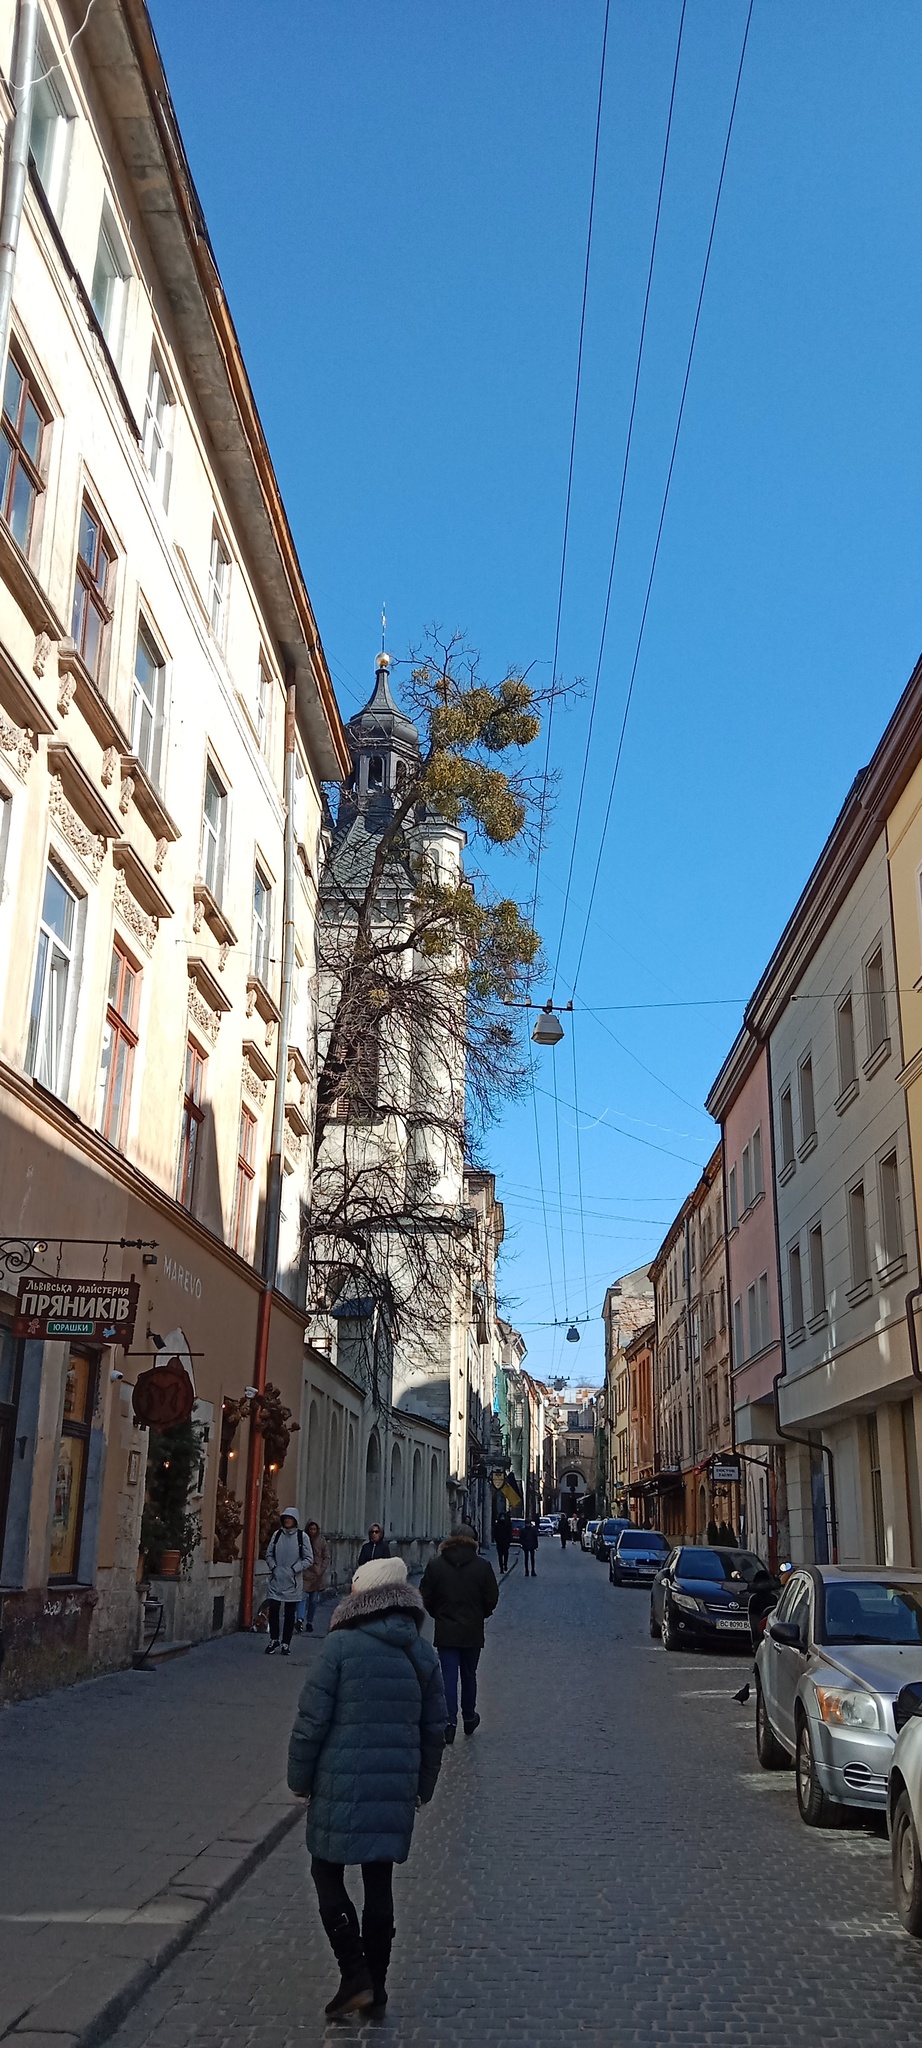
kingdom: Plantae
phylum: Tracheophyta
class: Magnoliopsida
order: Santalales
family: Viscaceae
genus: Viscum
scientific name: Viscum album
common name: Mistletoe
